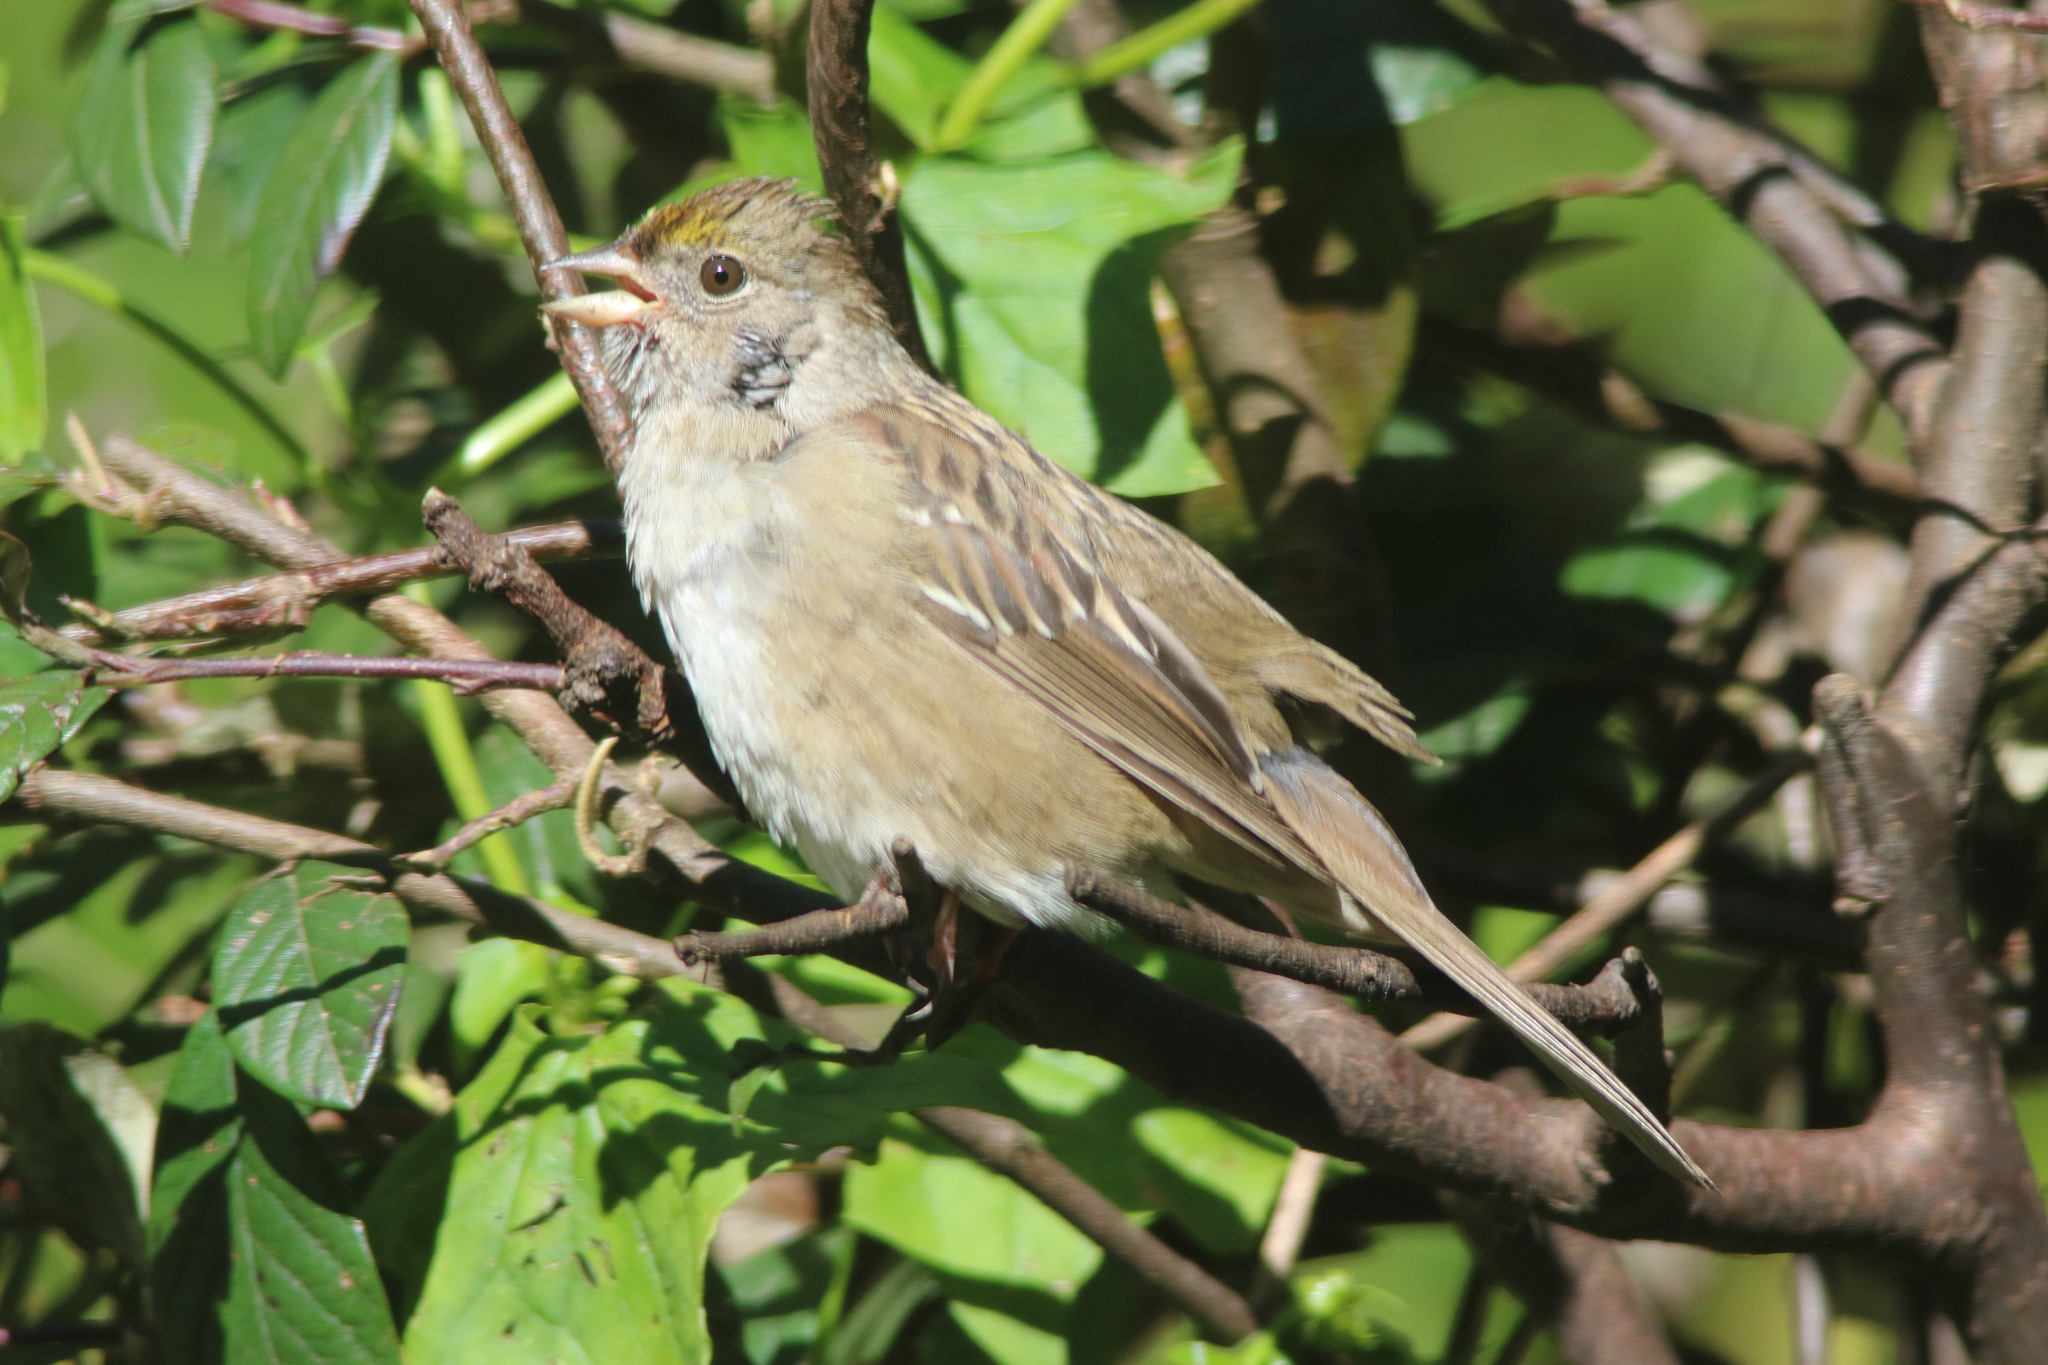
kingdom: Animalia
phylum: Chordata
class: Aves
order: Passeriformes
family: Passerellidae
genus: Zonotrichia
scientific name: Zonotrichia atricapilla
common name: Golden-crowned sparrow
